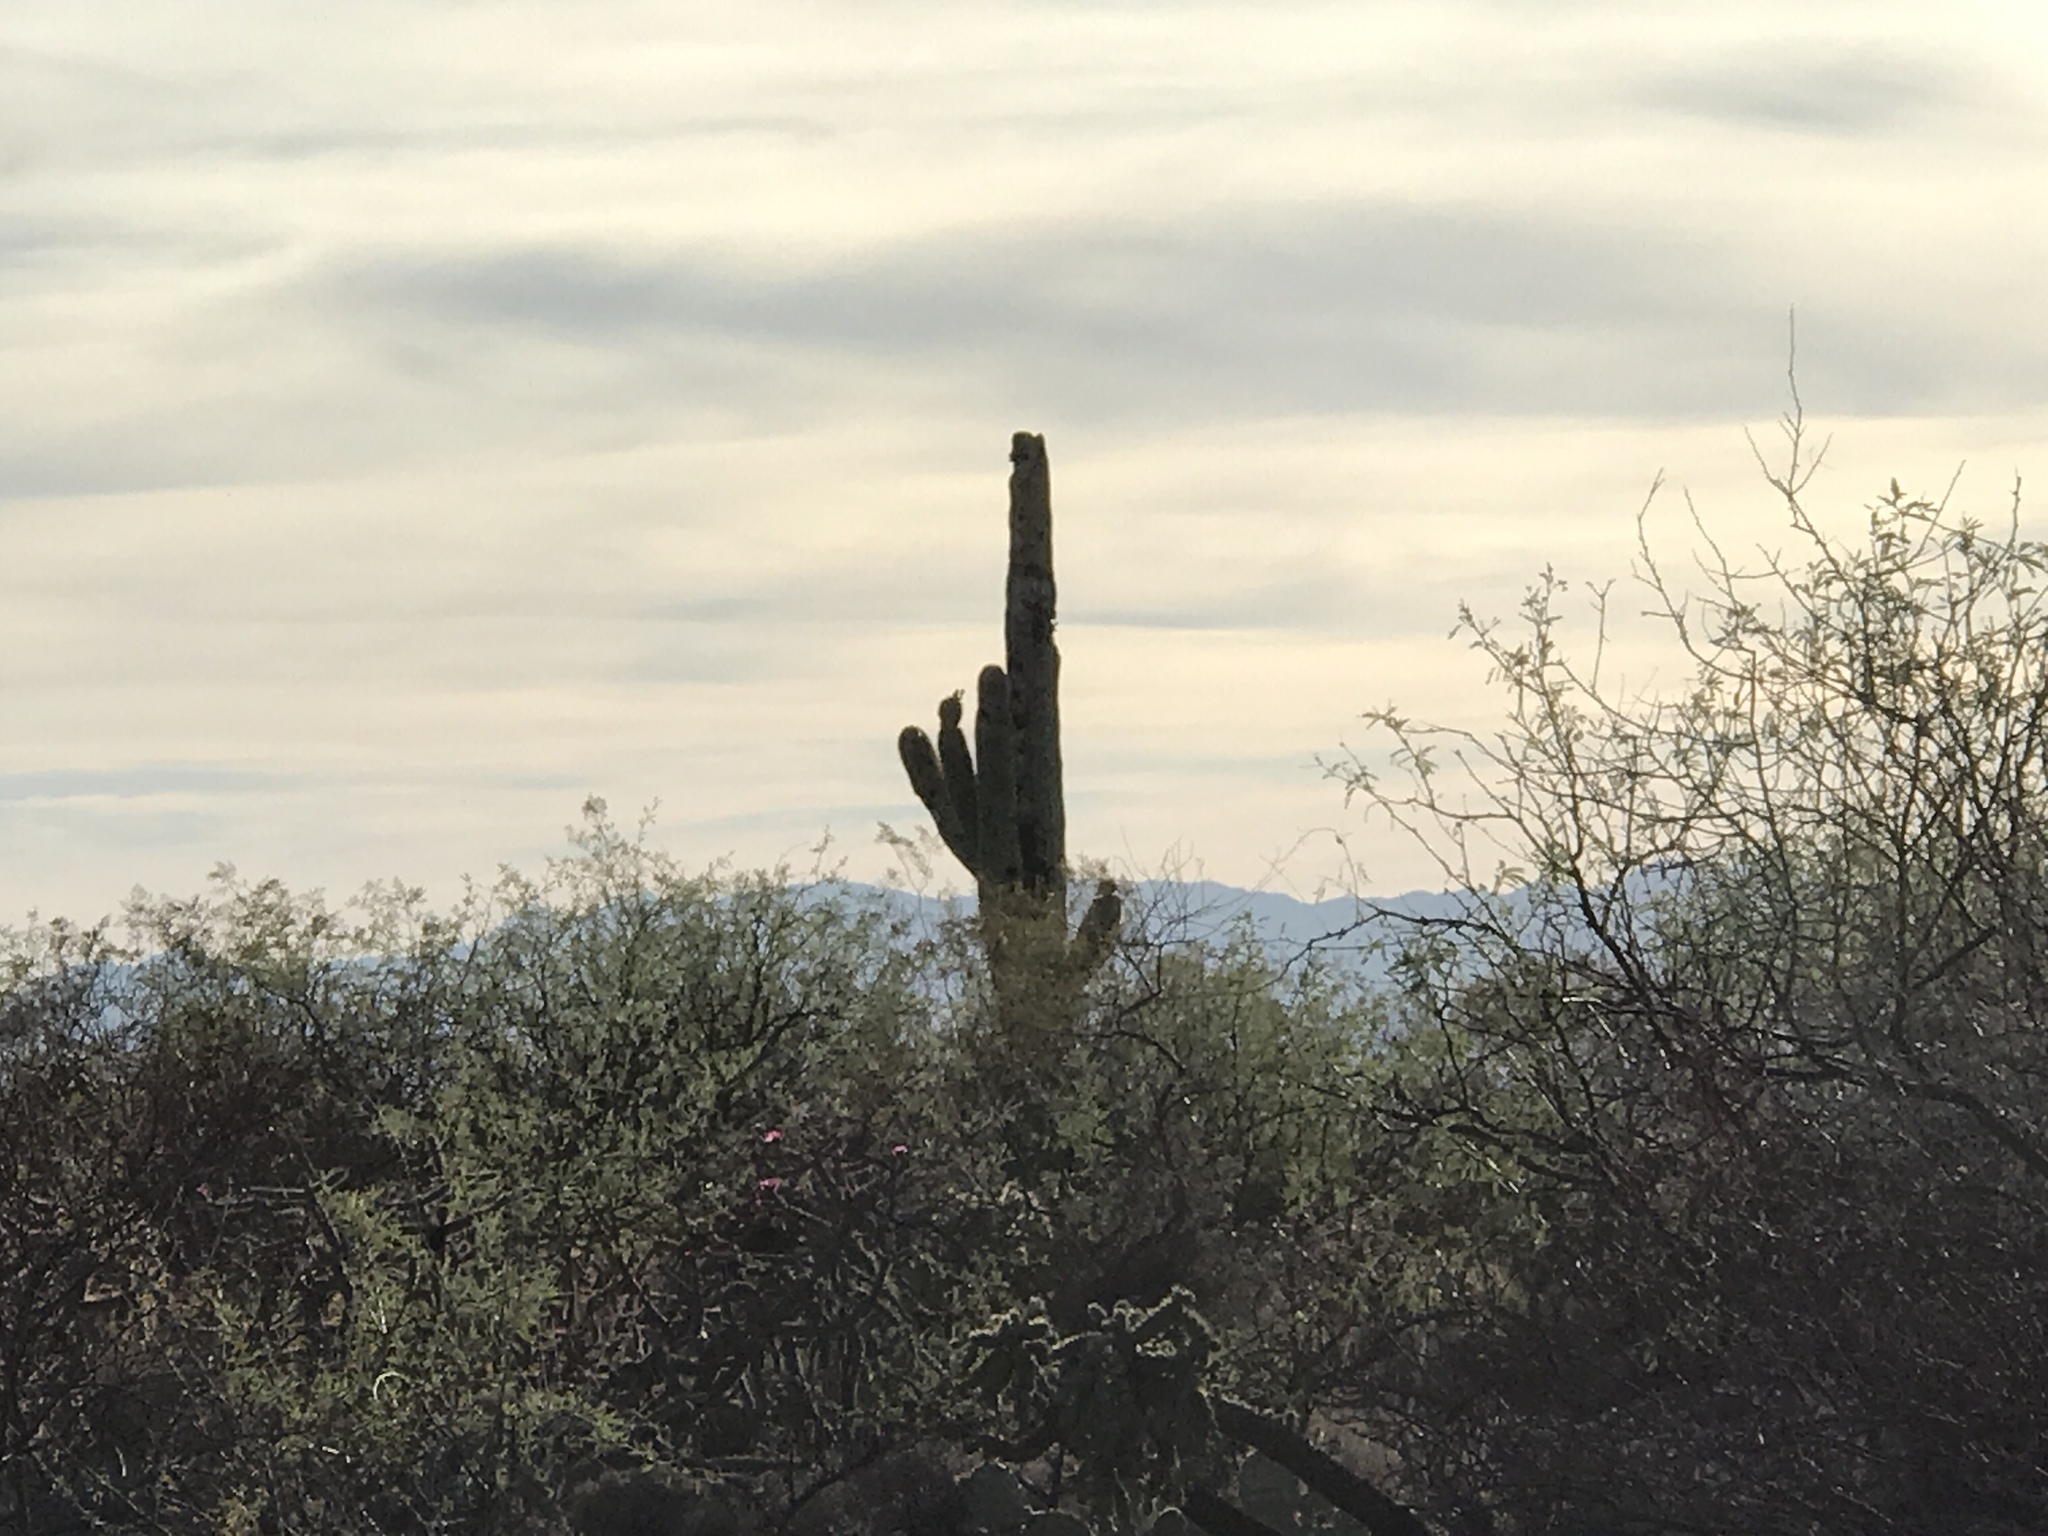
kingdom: Plantae
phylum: Tracheophyta
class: Magnoliopsida
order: Caryophyllales
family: Cactaceae
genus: Carnegiea
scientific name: Carnegiea gigantea
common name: Saguaro
